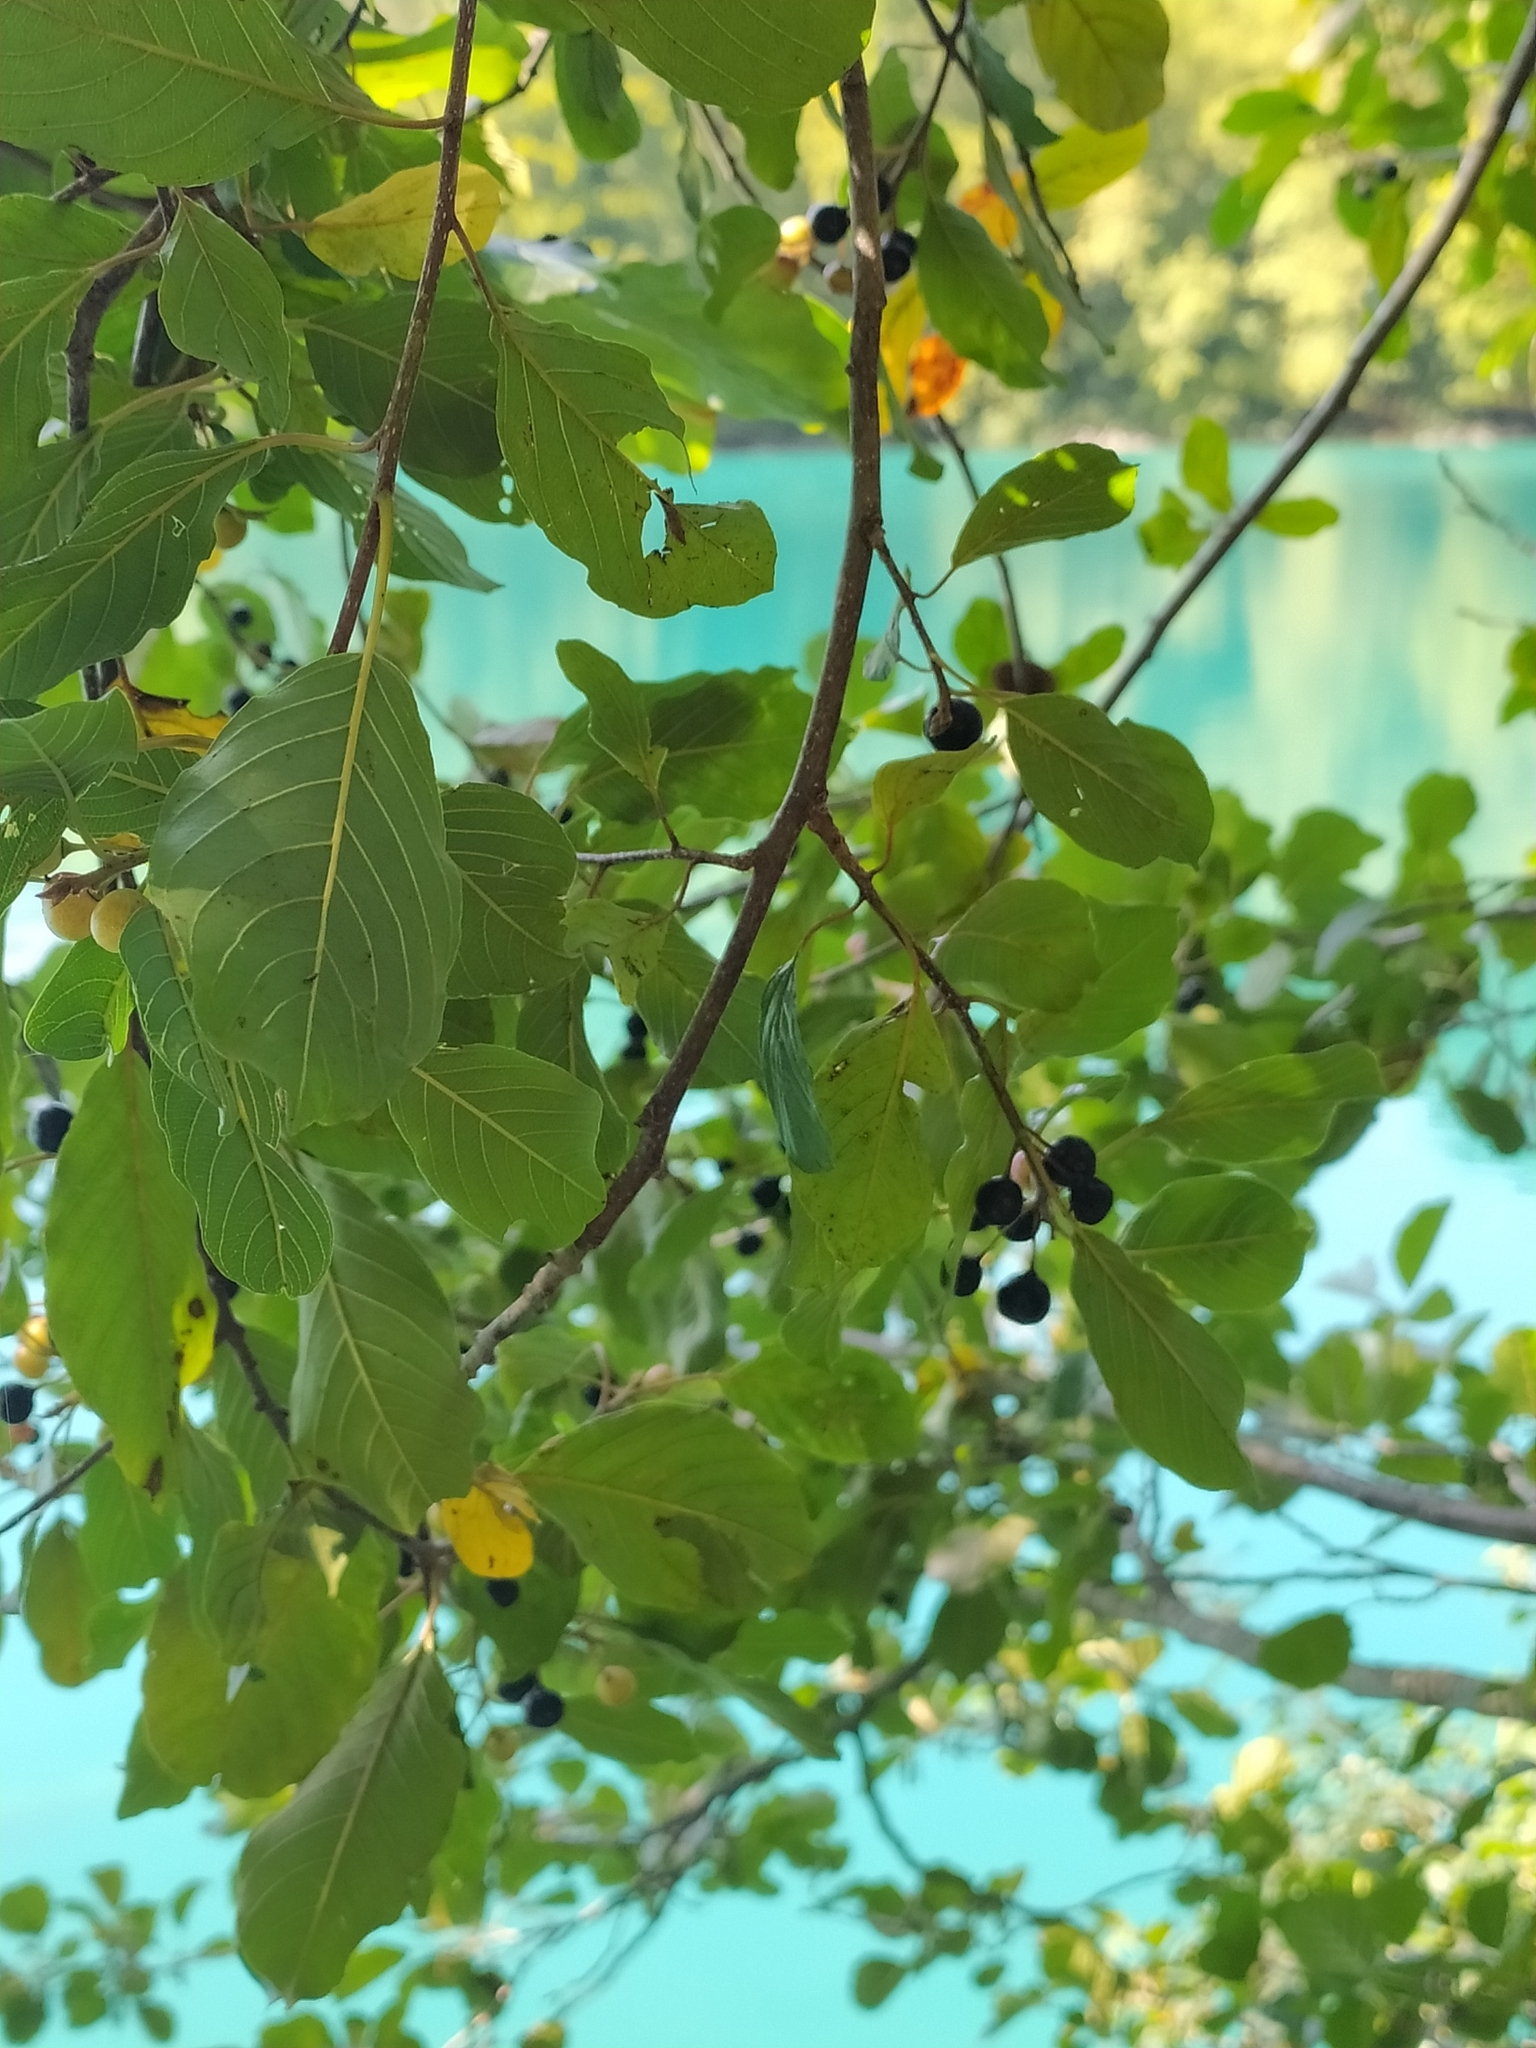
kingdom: Plantae
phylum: Tracheophyta
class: Magnoliopsida
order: Rosales
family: Rhamnaceae
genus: Frangula
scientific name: Frangula alnus
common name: Alder buckthorn
